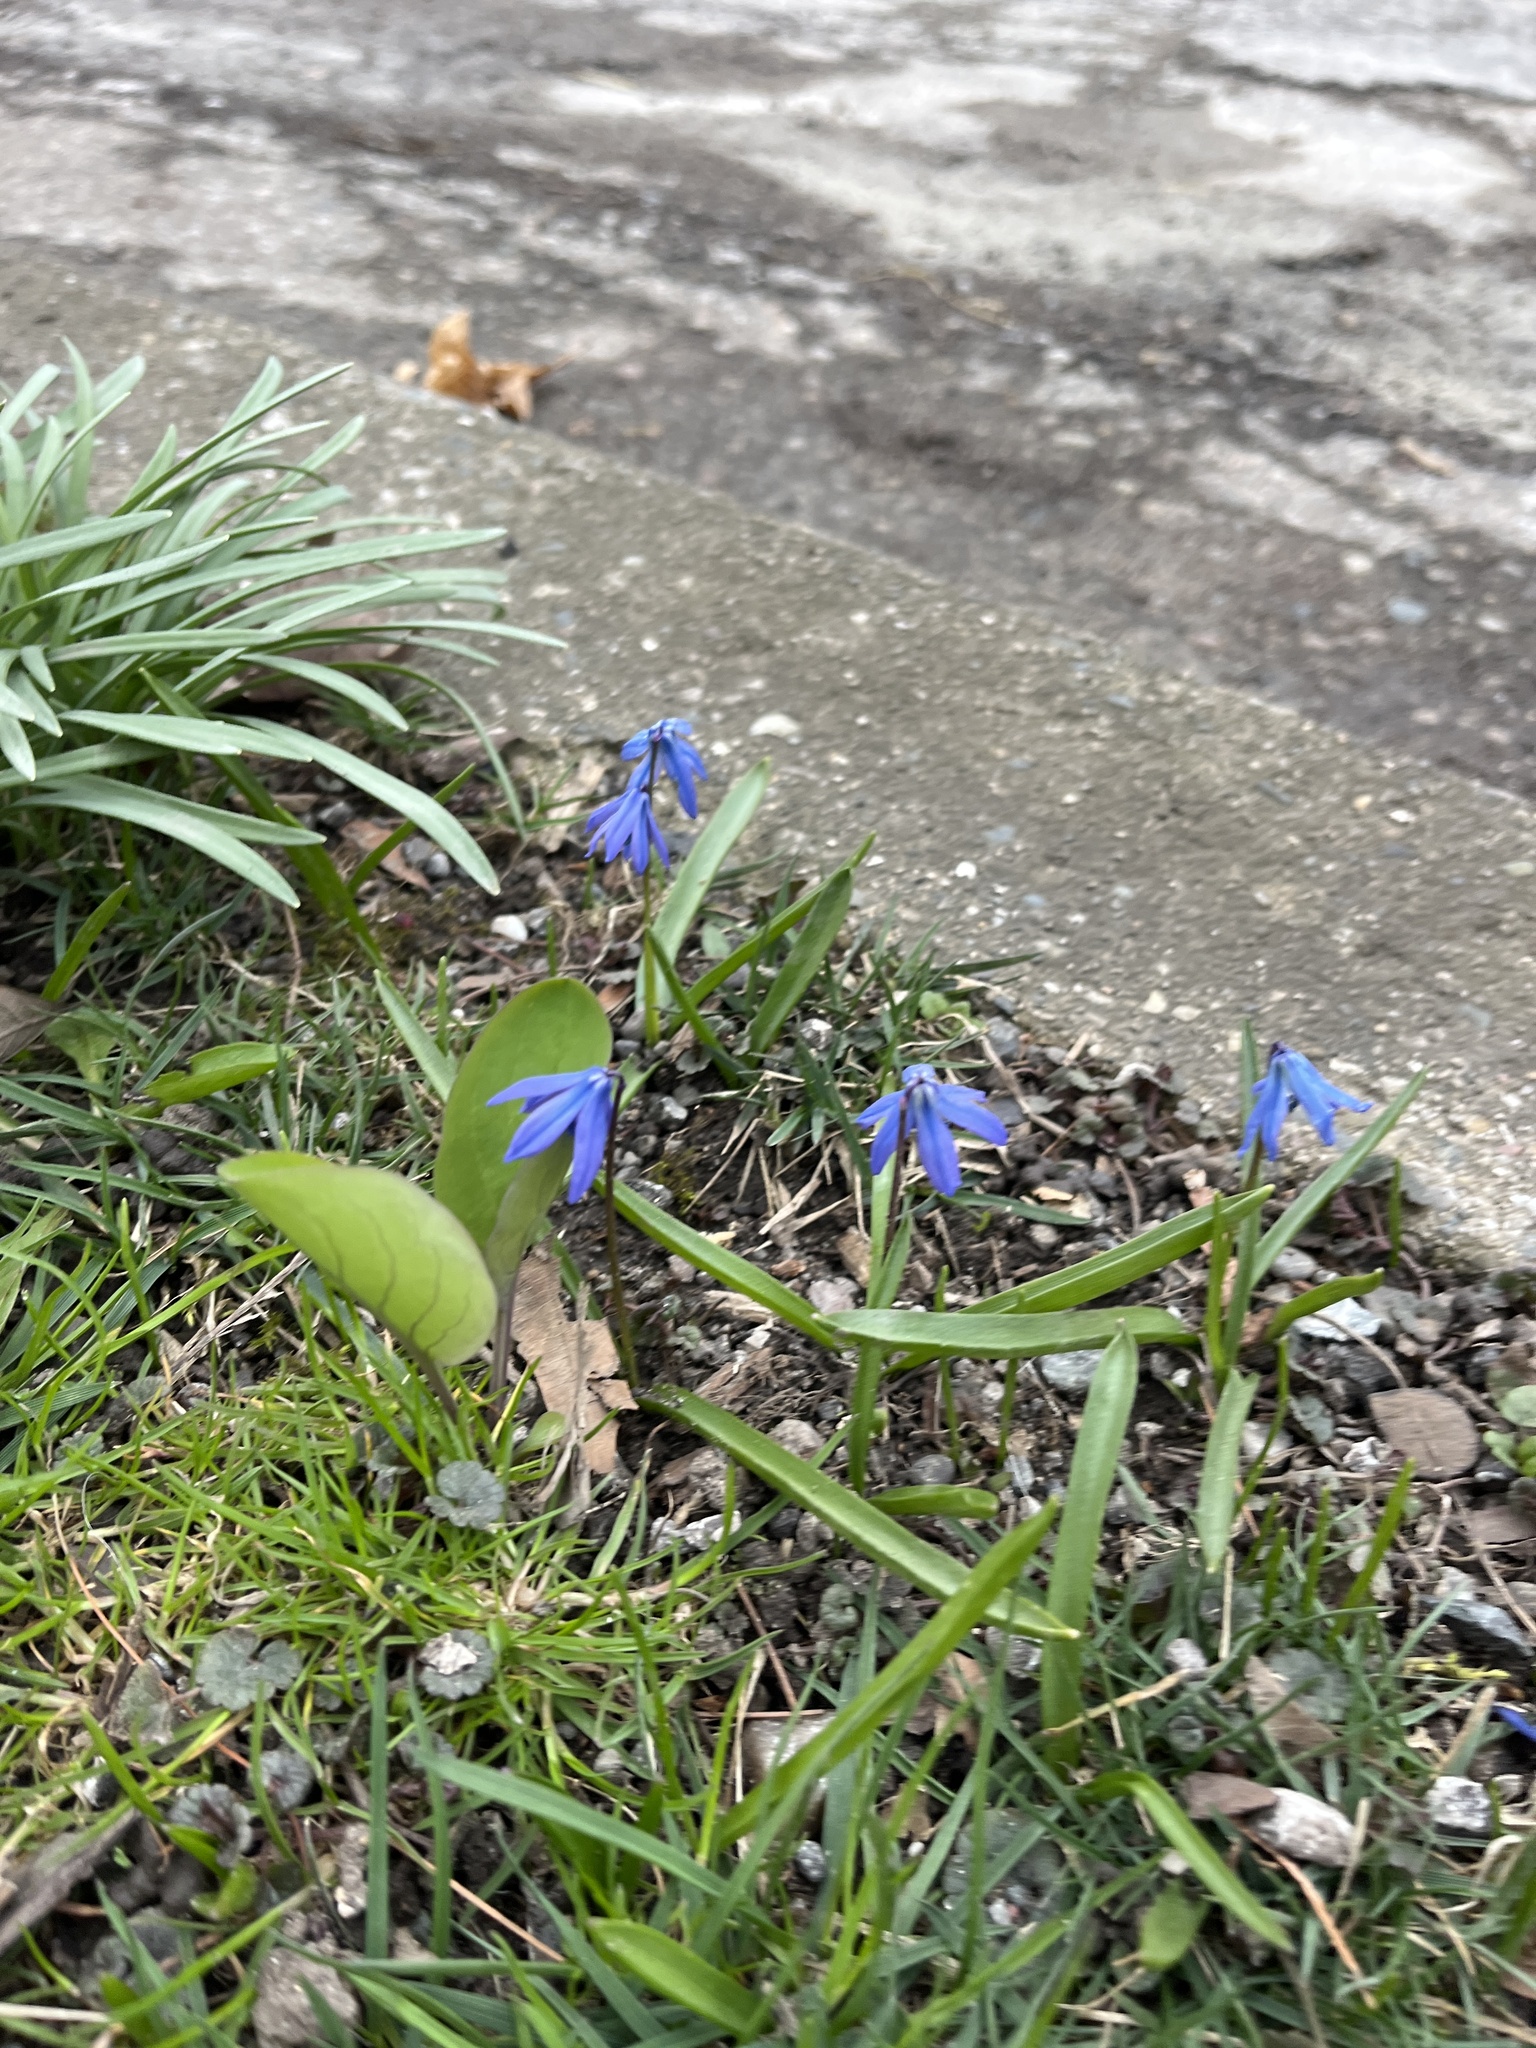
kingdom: Plantae
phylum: Tracheophyta
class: Liliopsida
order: Asparagales
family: Asparagaceae
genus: Scilla
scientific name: Scilla siberica
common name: Siberian squill
